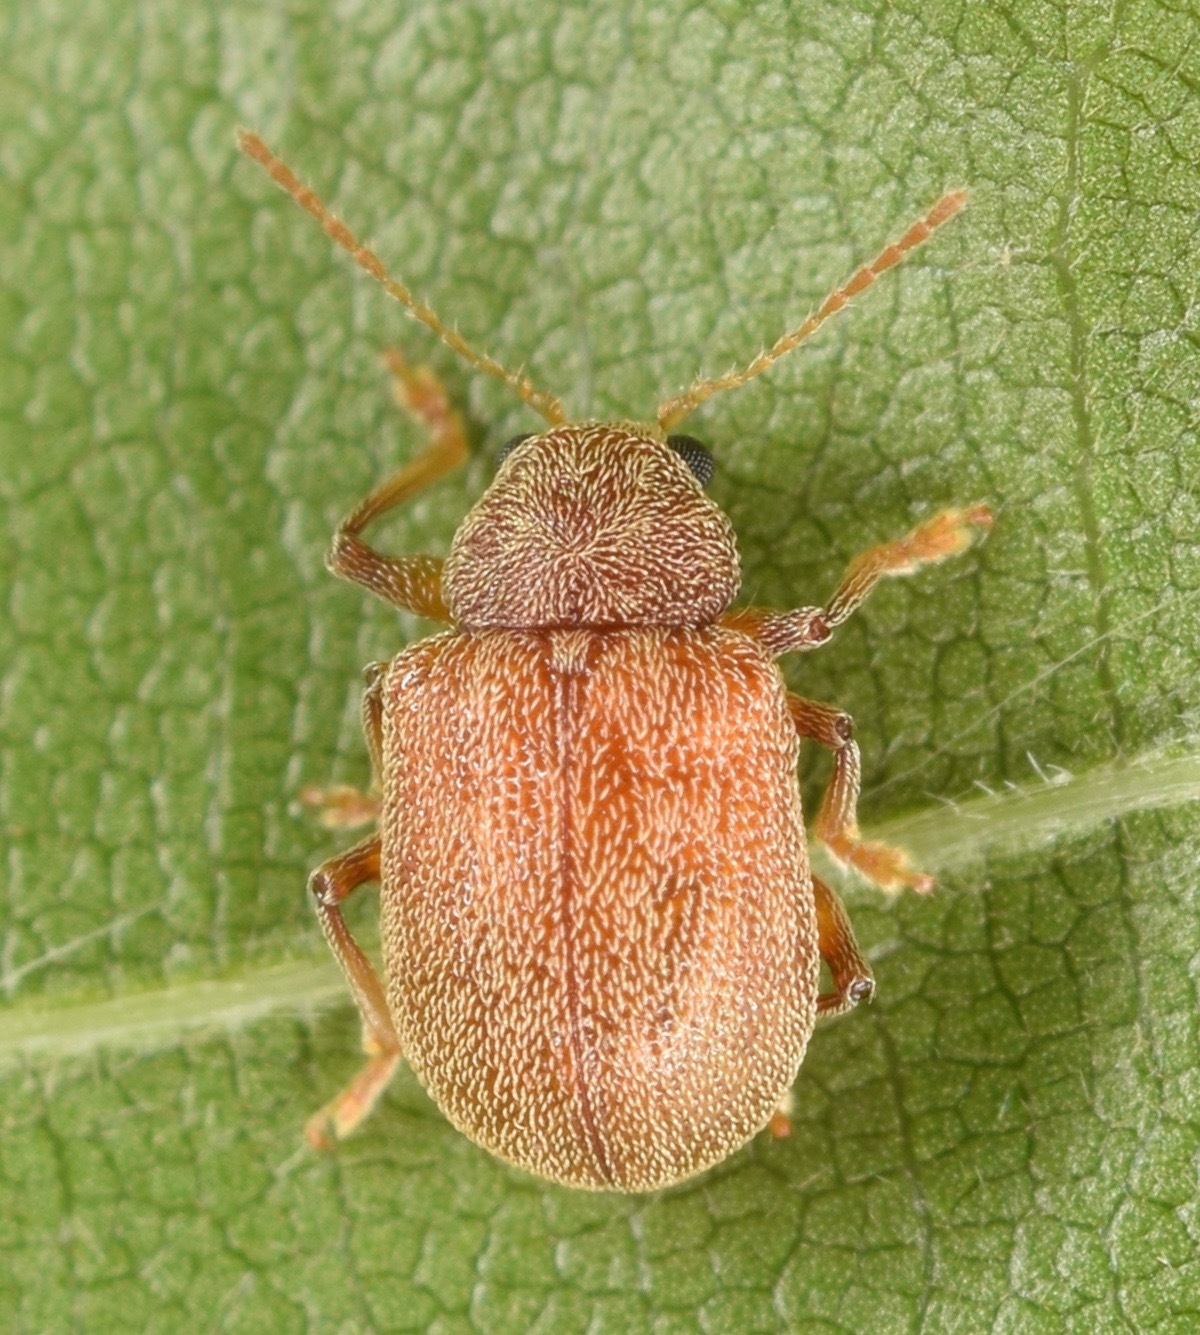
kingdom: Animalia
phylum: Arthropoda
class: Insecta
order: Coleoptera
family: Chrysomelidae
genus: Demotina
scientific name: Demotina modesta
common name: Leaf beetle
